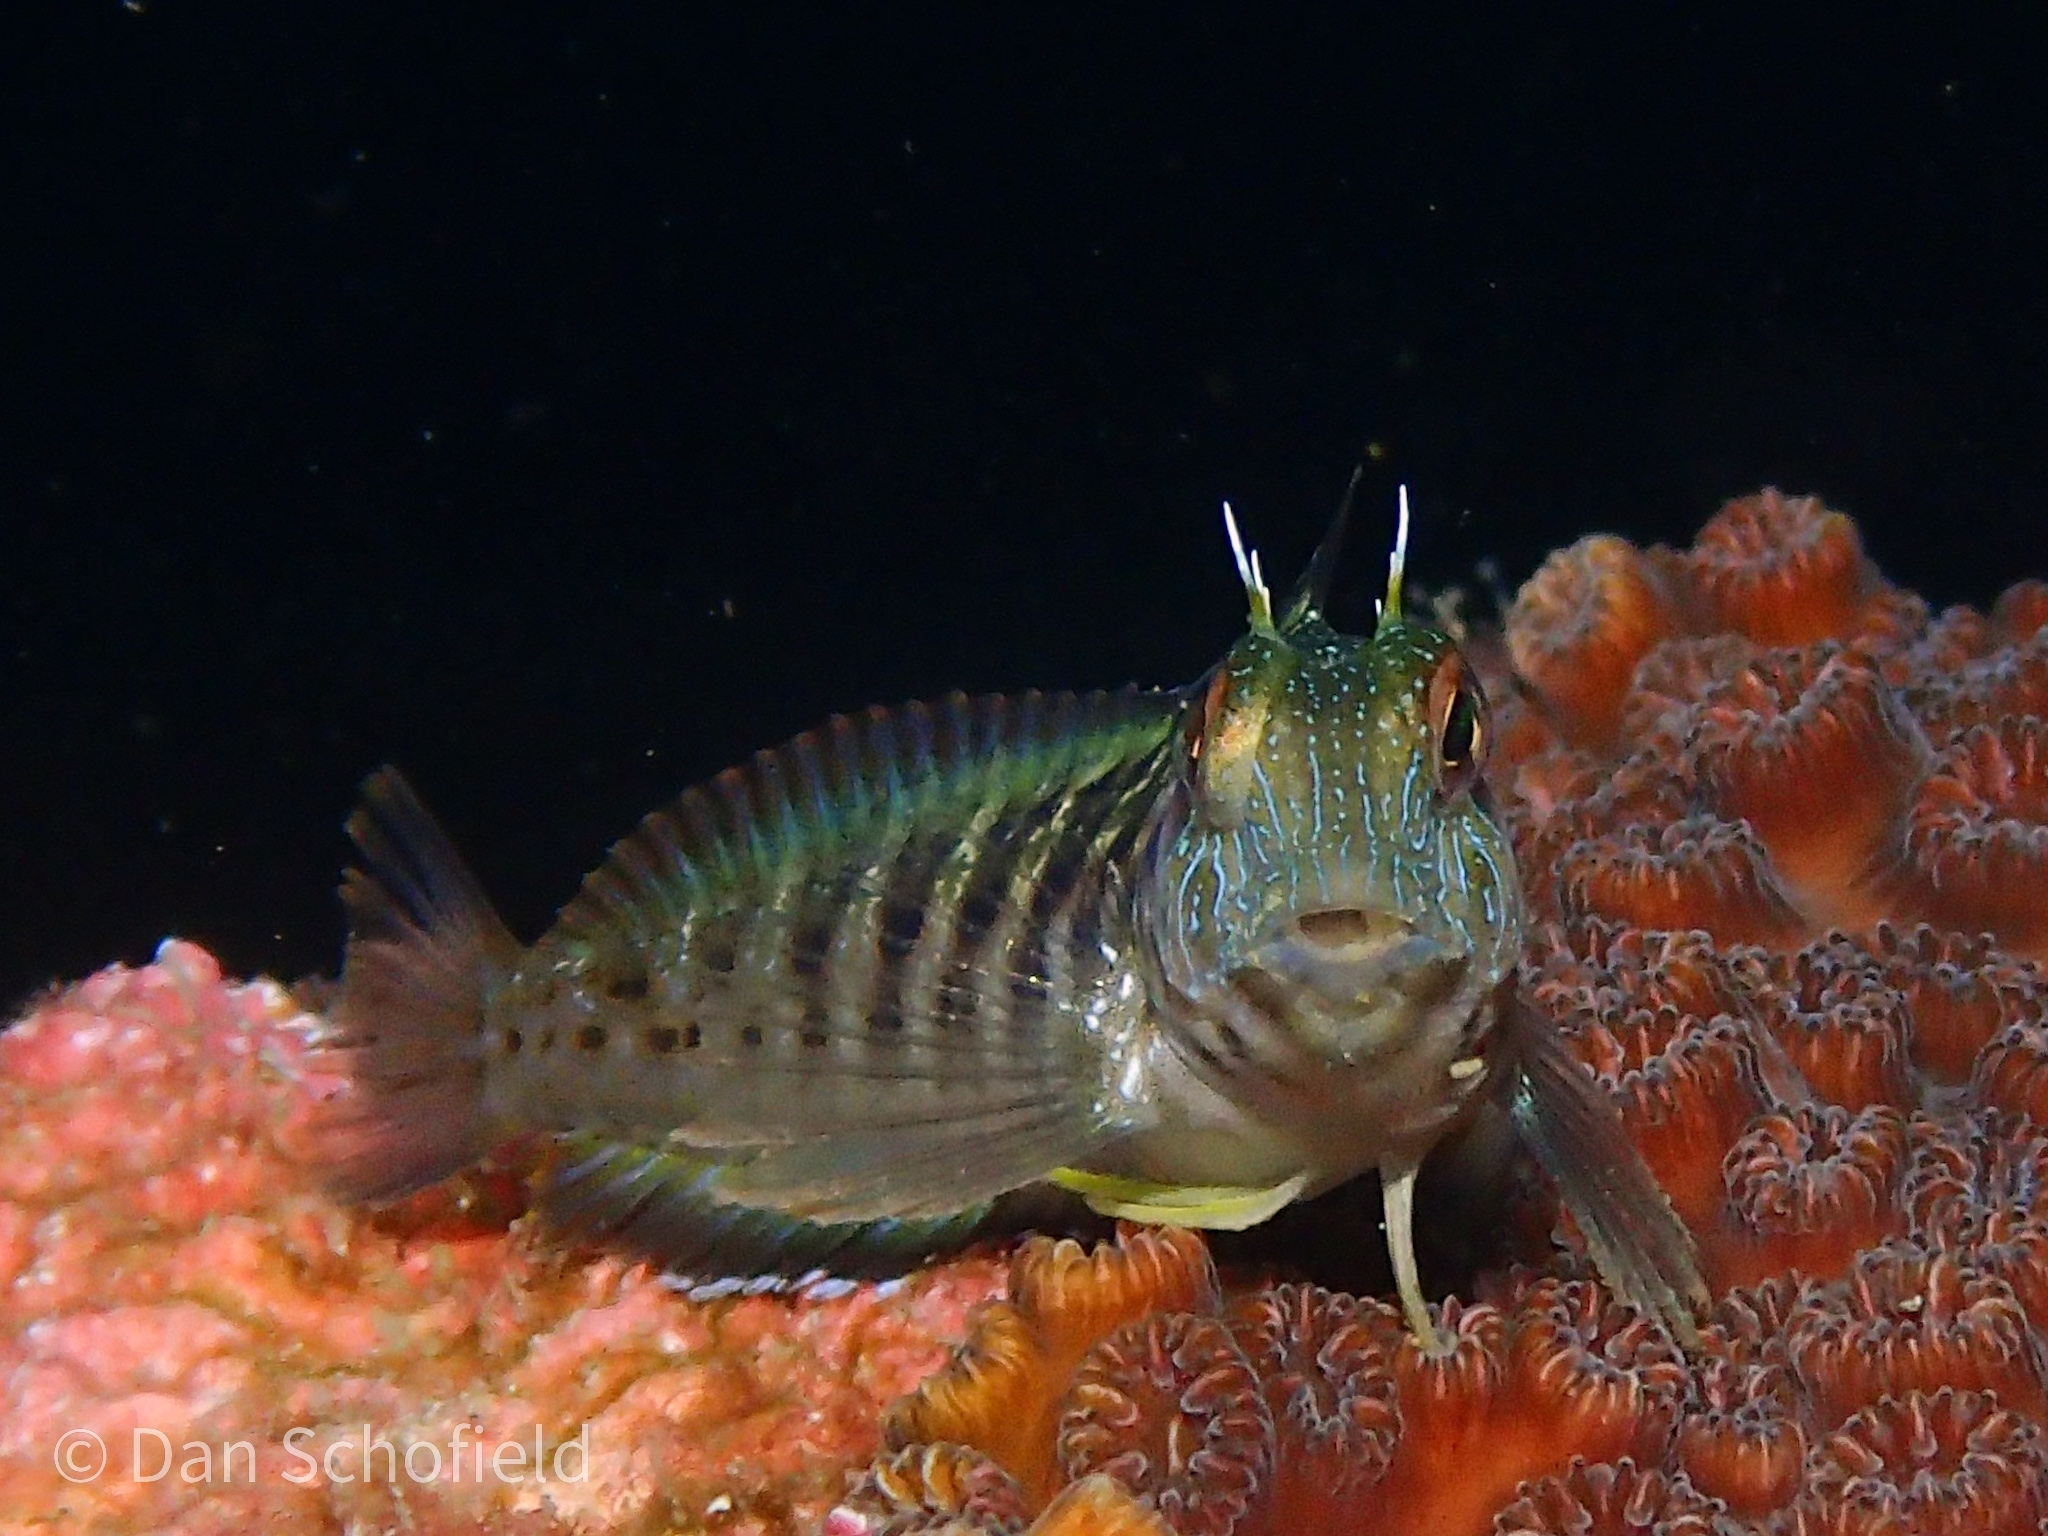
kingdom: Animalia
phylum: Chordata
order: Perciformes
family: Blenniidae
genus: Parablennius
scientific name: Parablennius marmoreus
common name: Seaweed blenny
